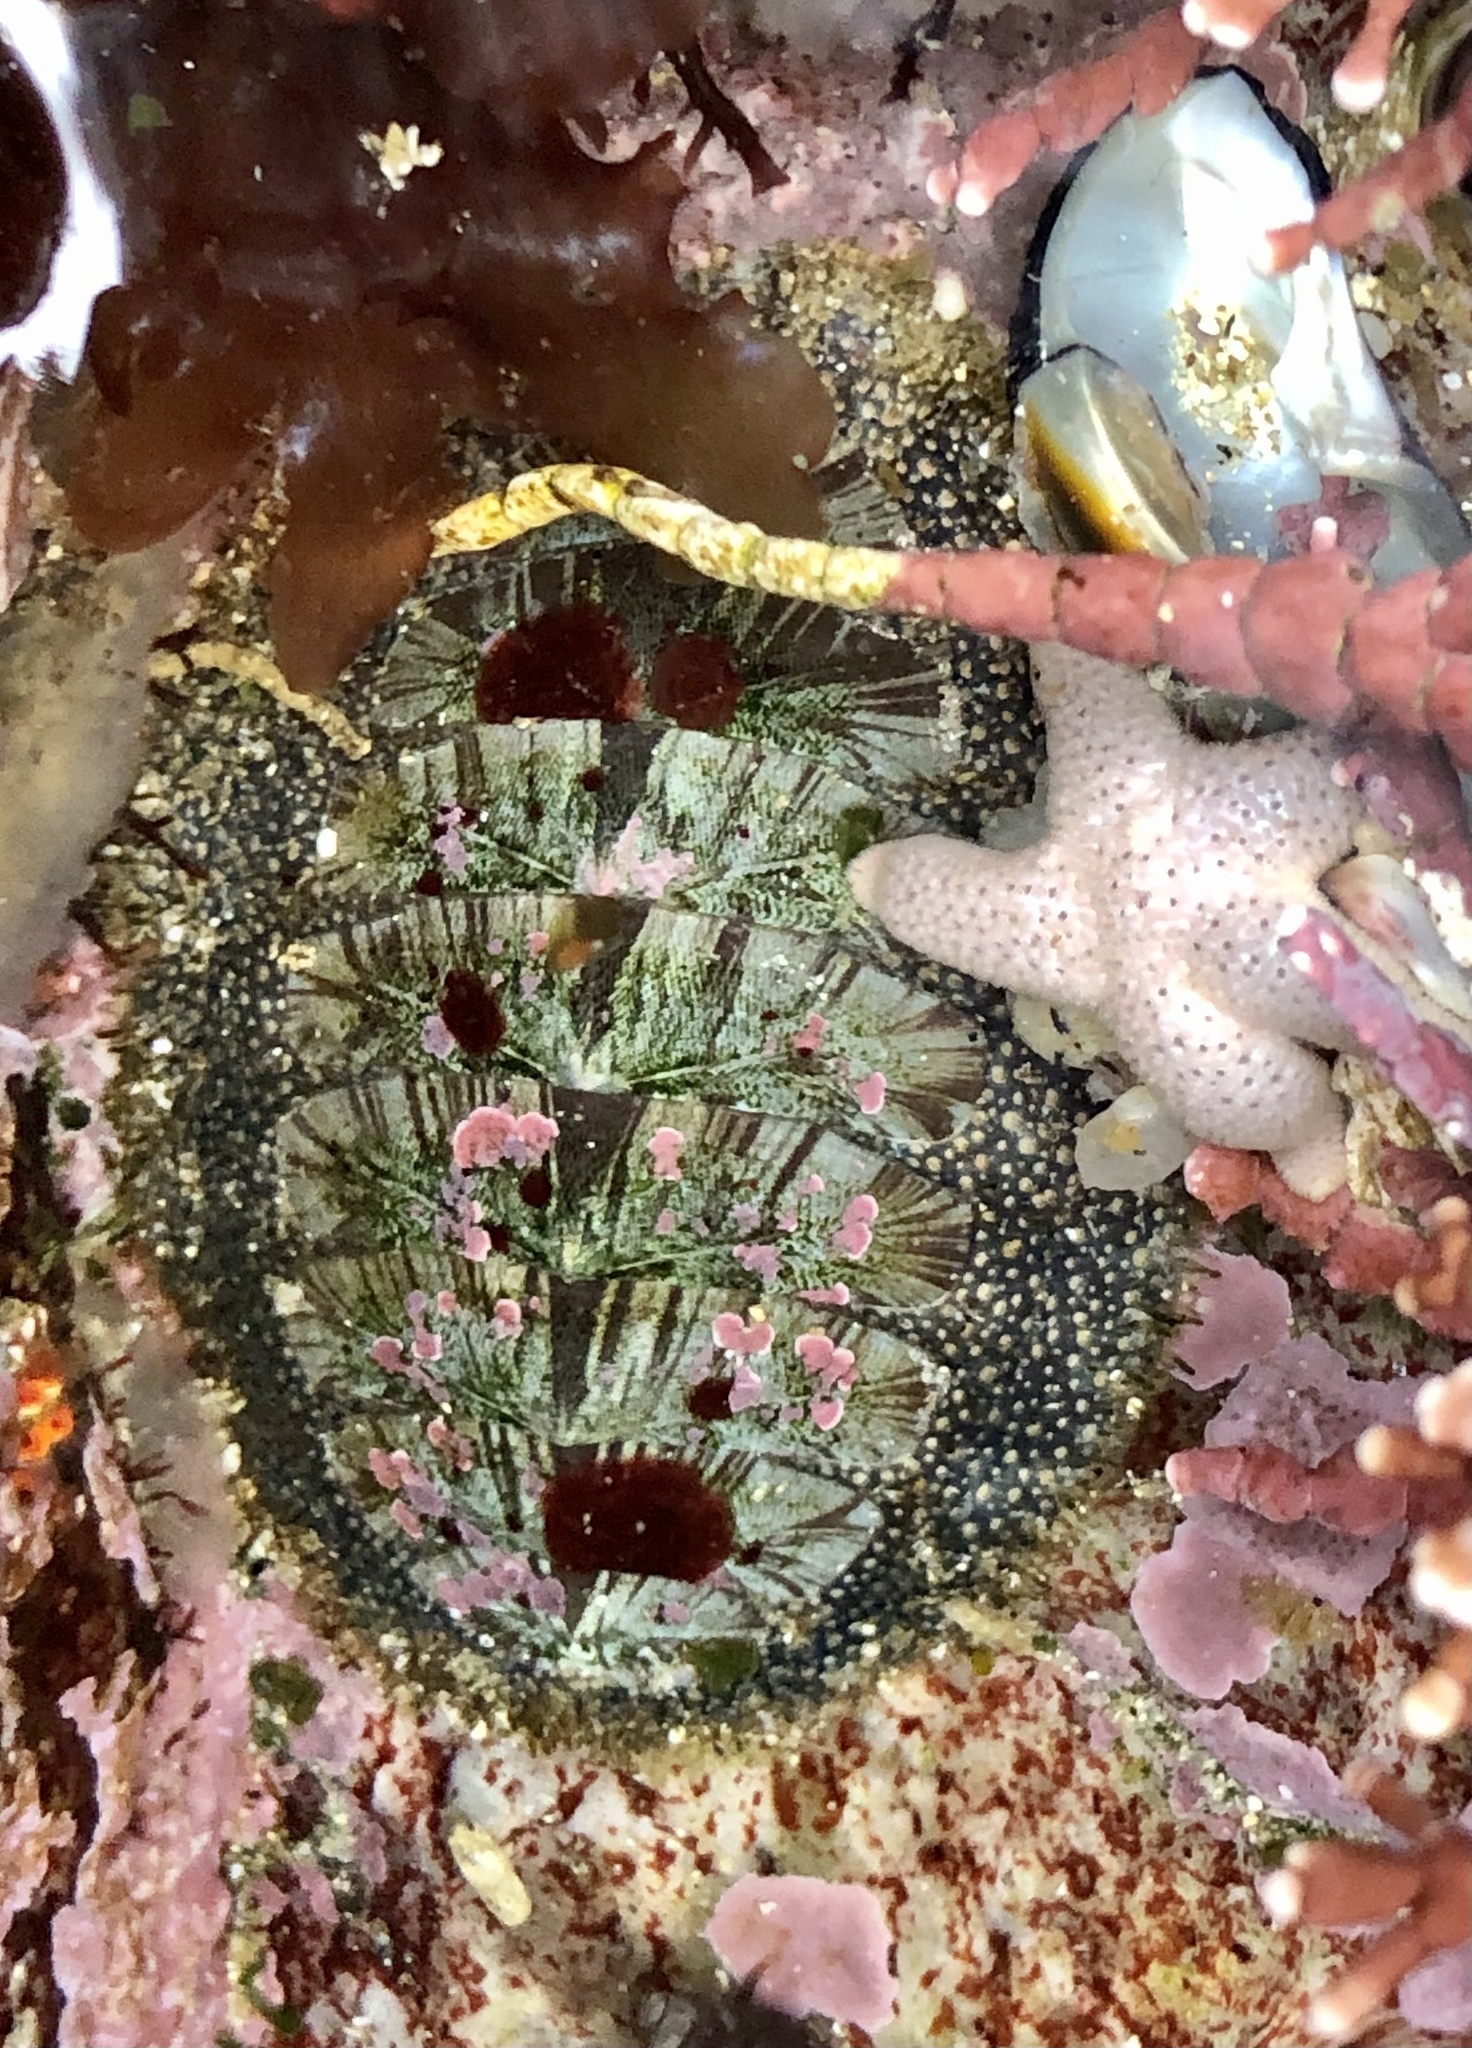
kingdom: Animalia
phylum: Mollusca
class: Polyplacophora
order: Chitonida
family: Mopaliidae
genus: Mopalia
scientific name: Mopalia lignosa
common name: Woody chiton
